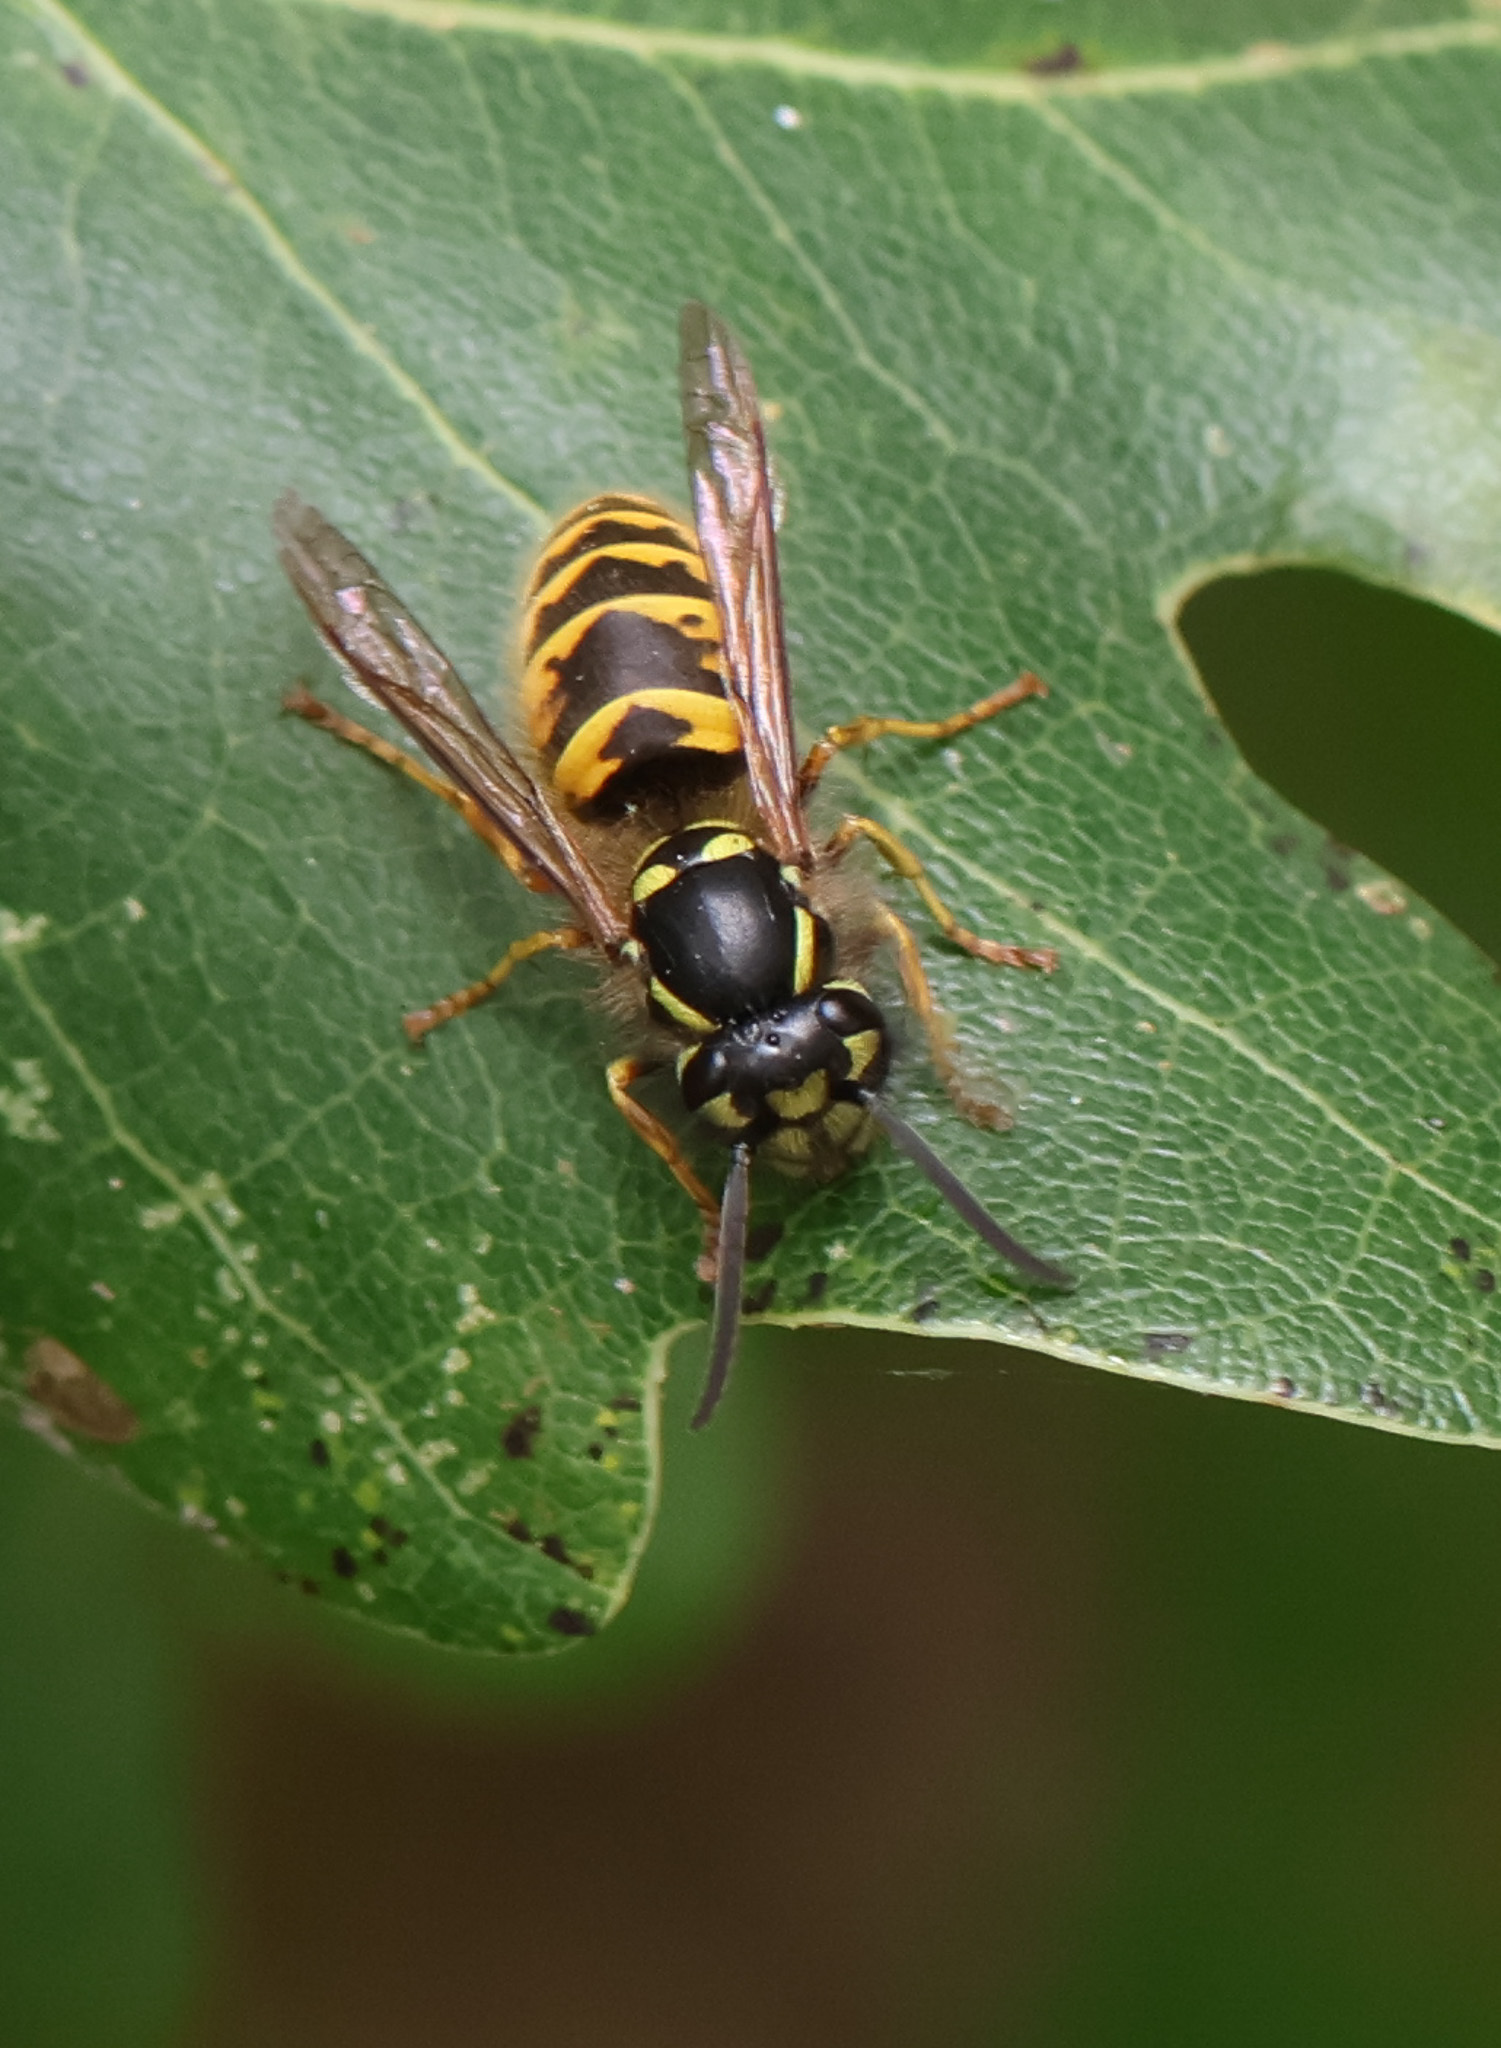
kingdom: Animalia
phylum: Arthropoda
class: Insecta
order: Hymenoptera
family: Vespidae
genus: Vespula
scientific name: Vespula vulgaris
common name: Common wasp
